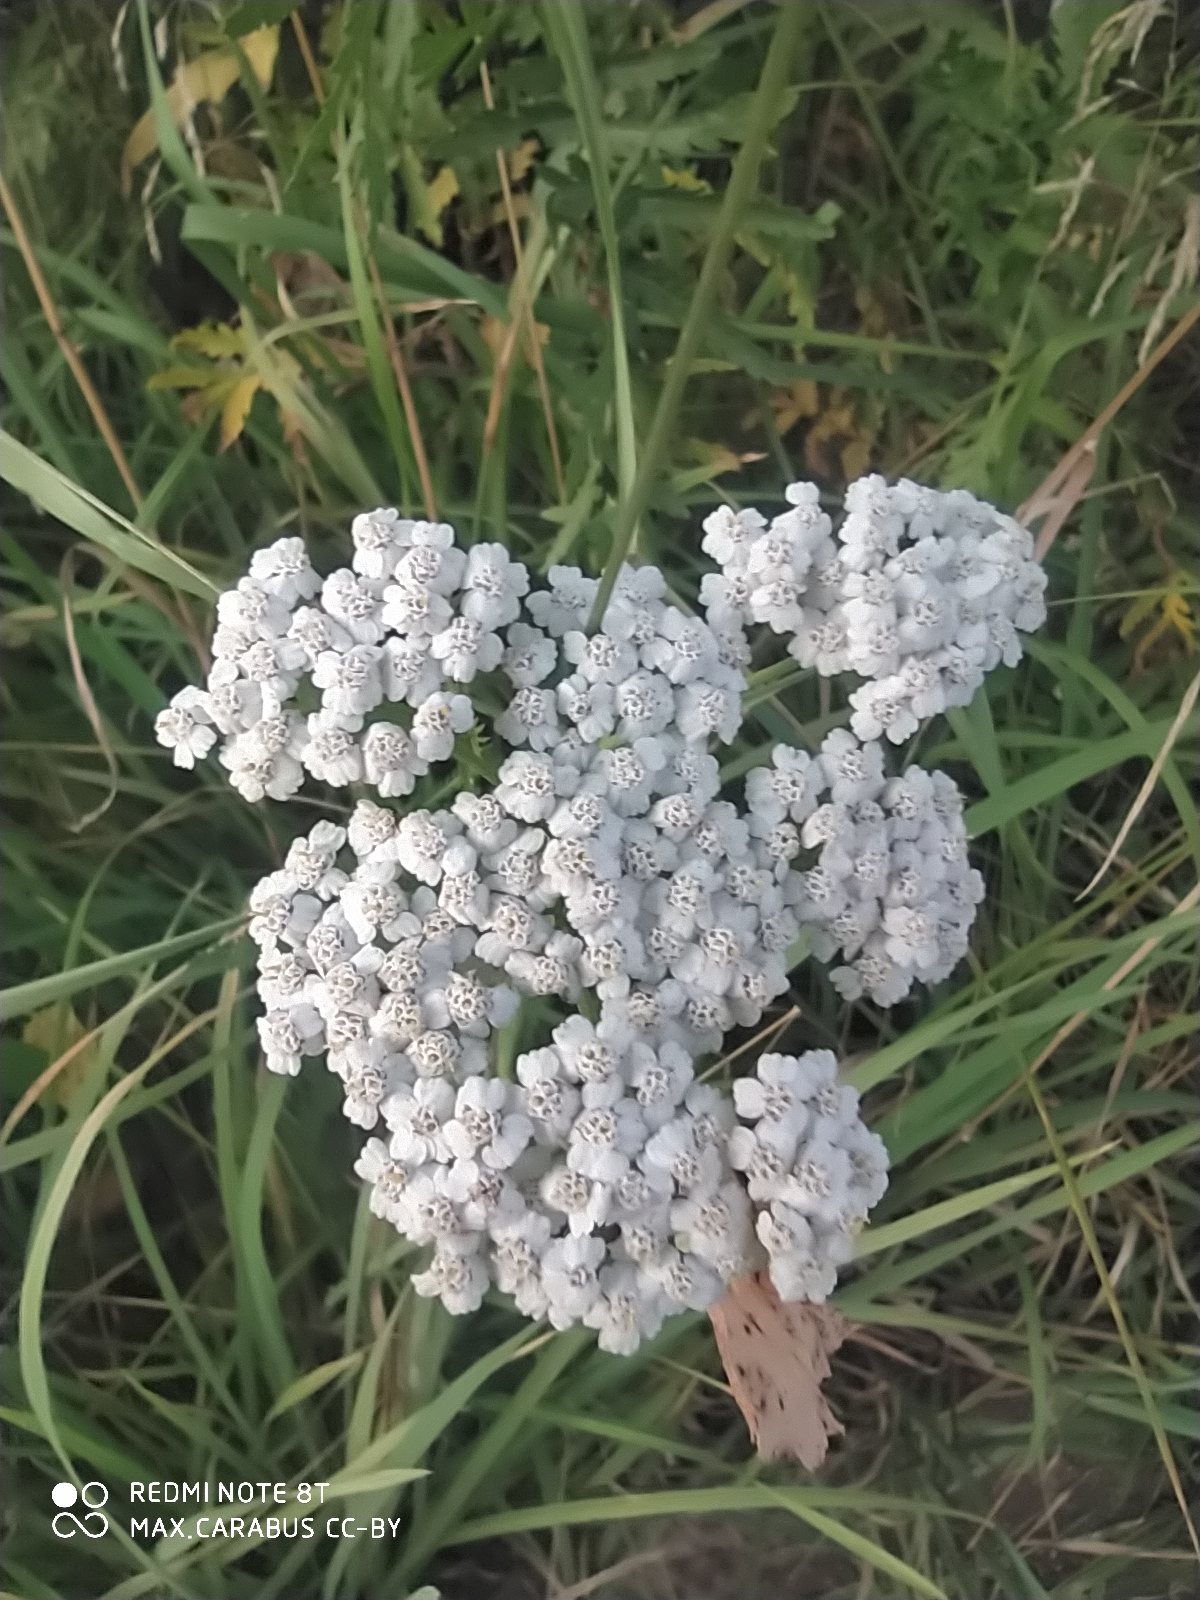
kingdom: Plantae
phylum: Tracheophyta
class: Magnoliopsida
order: Asterales
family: Asteraceae
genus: Achillea
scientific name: Achillea millefolium
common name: Yarrow
